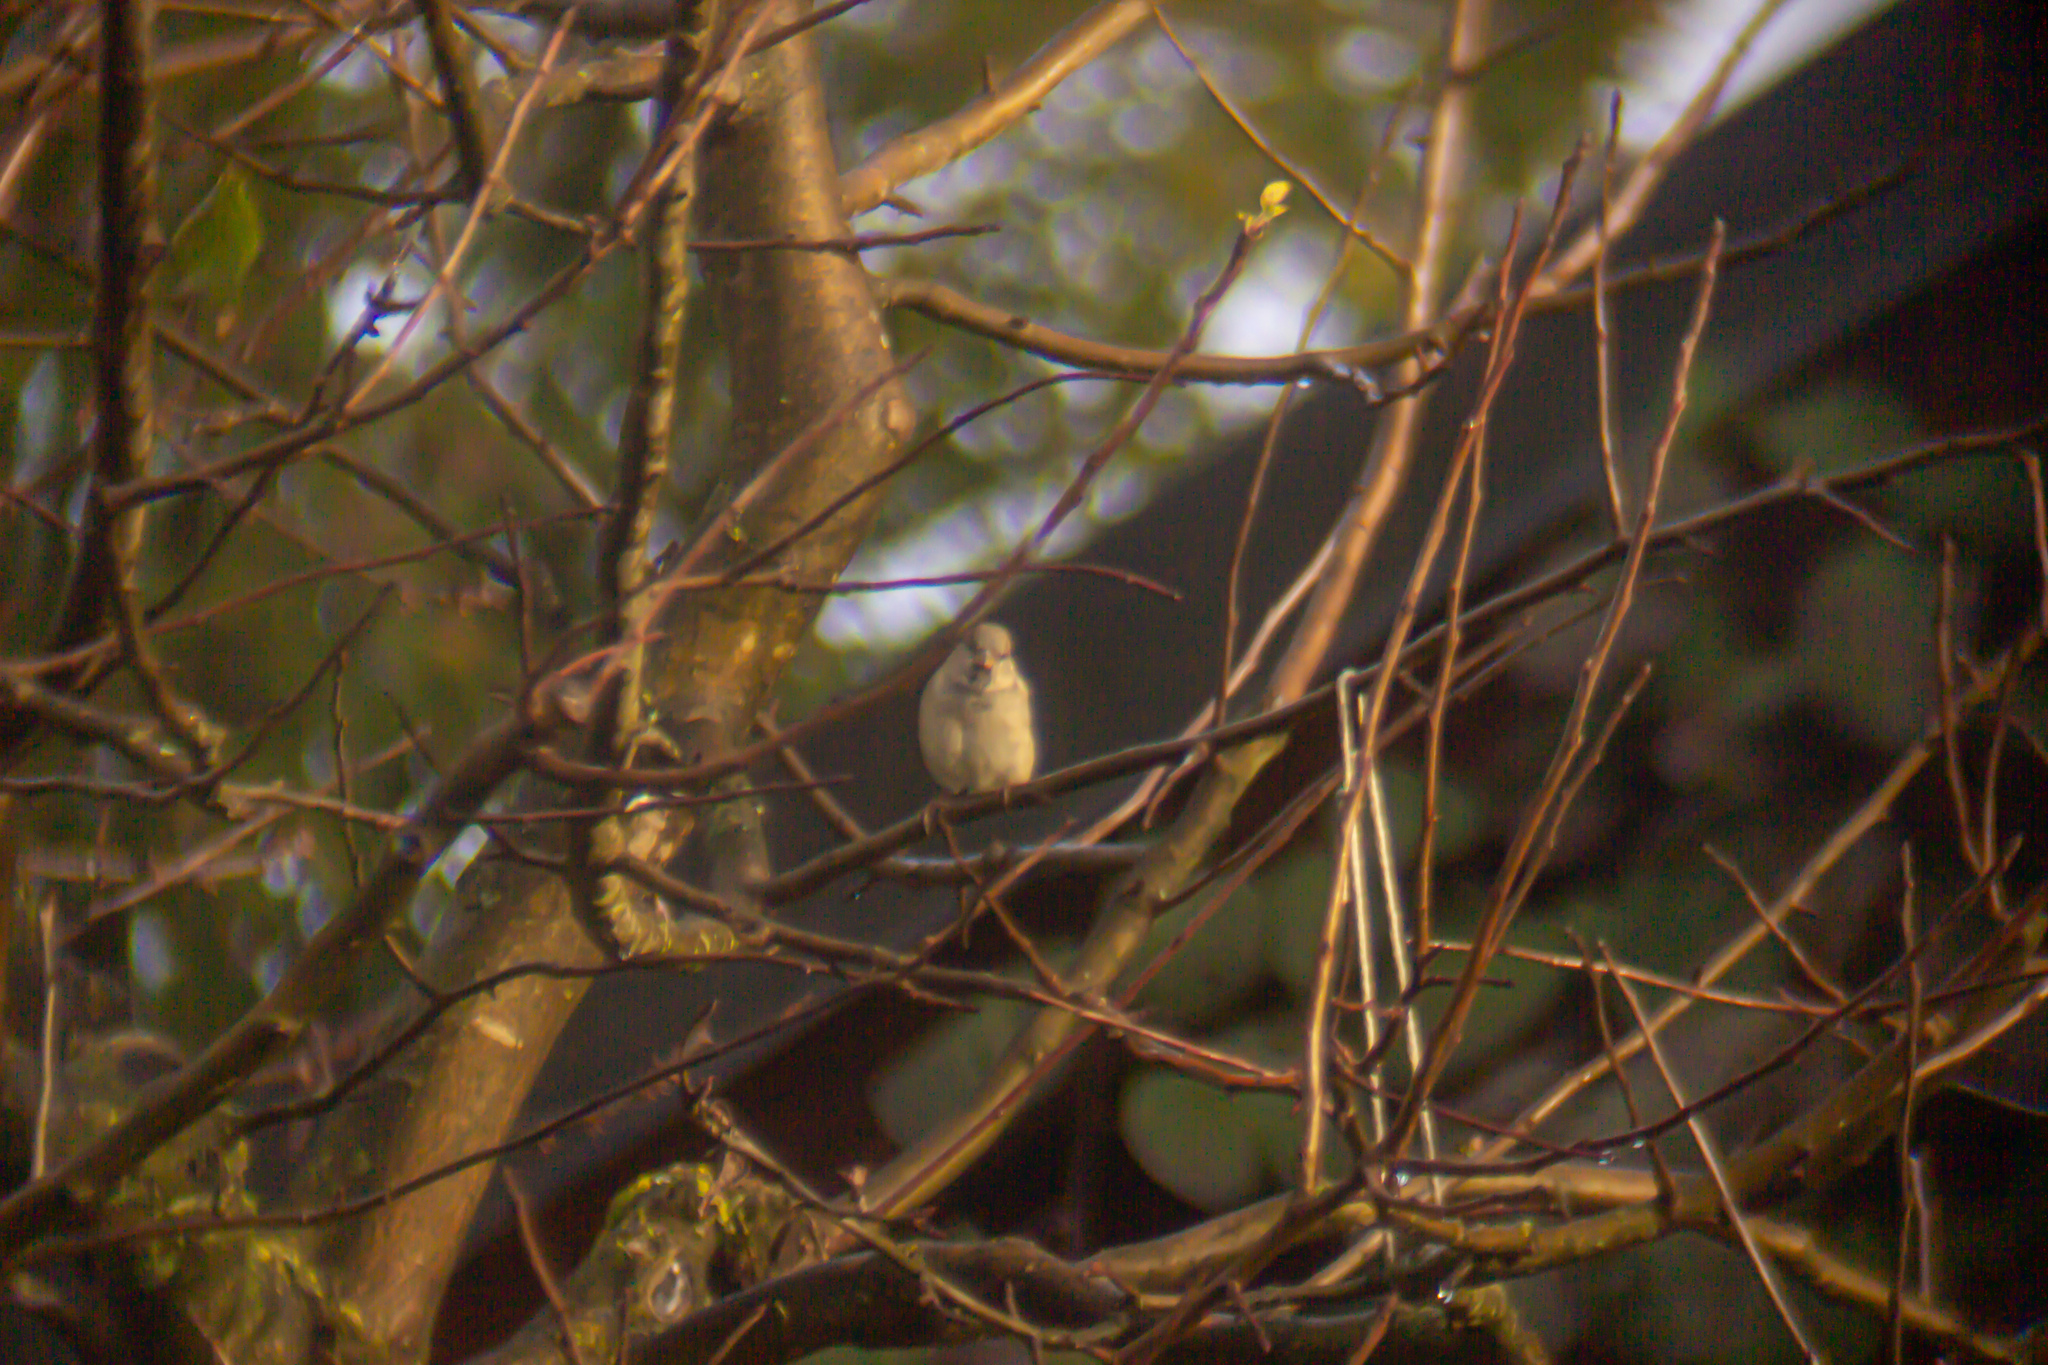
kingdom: Animalia
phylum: Chordata
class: Aves
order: Passeriformes
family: Passeridae
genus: Passer
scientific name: Passer domesticus
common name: House sparrow
